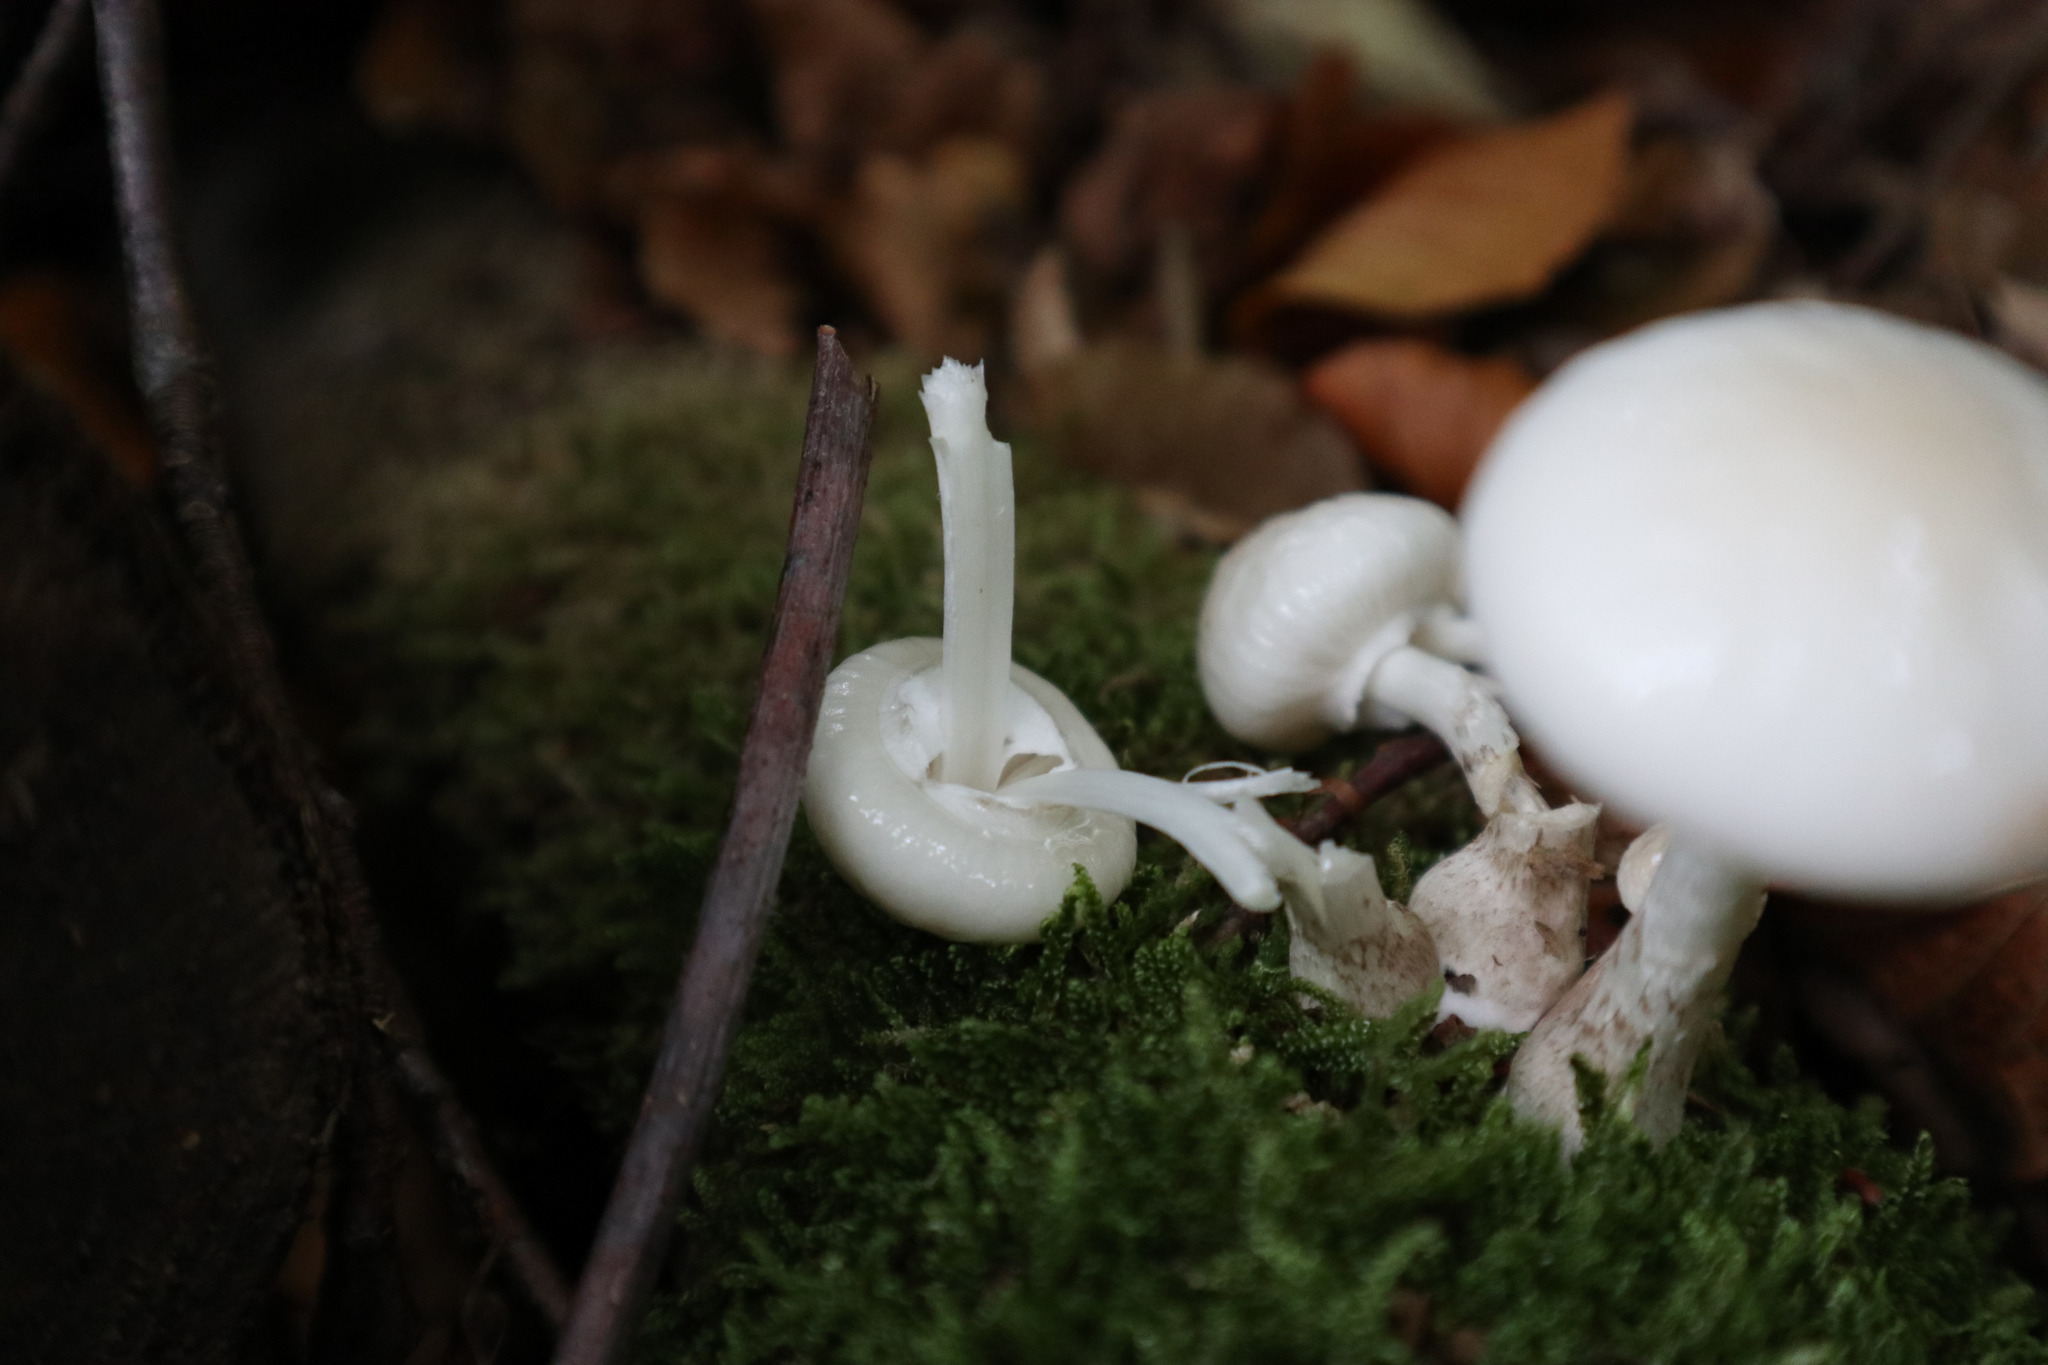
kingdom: Fungi
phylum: Basidiomycota
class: Agaricomycetes
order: Agaricales
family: Physalacriaceae
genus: Mucidula
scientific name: Mucidula mucida
